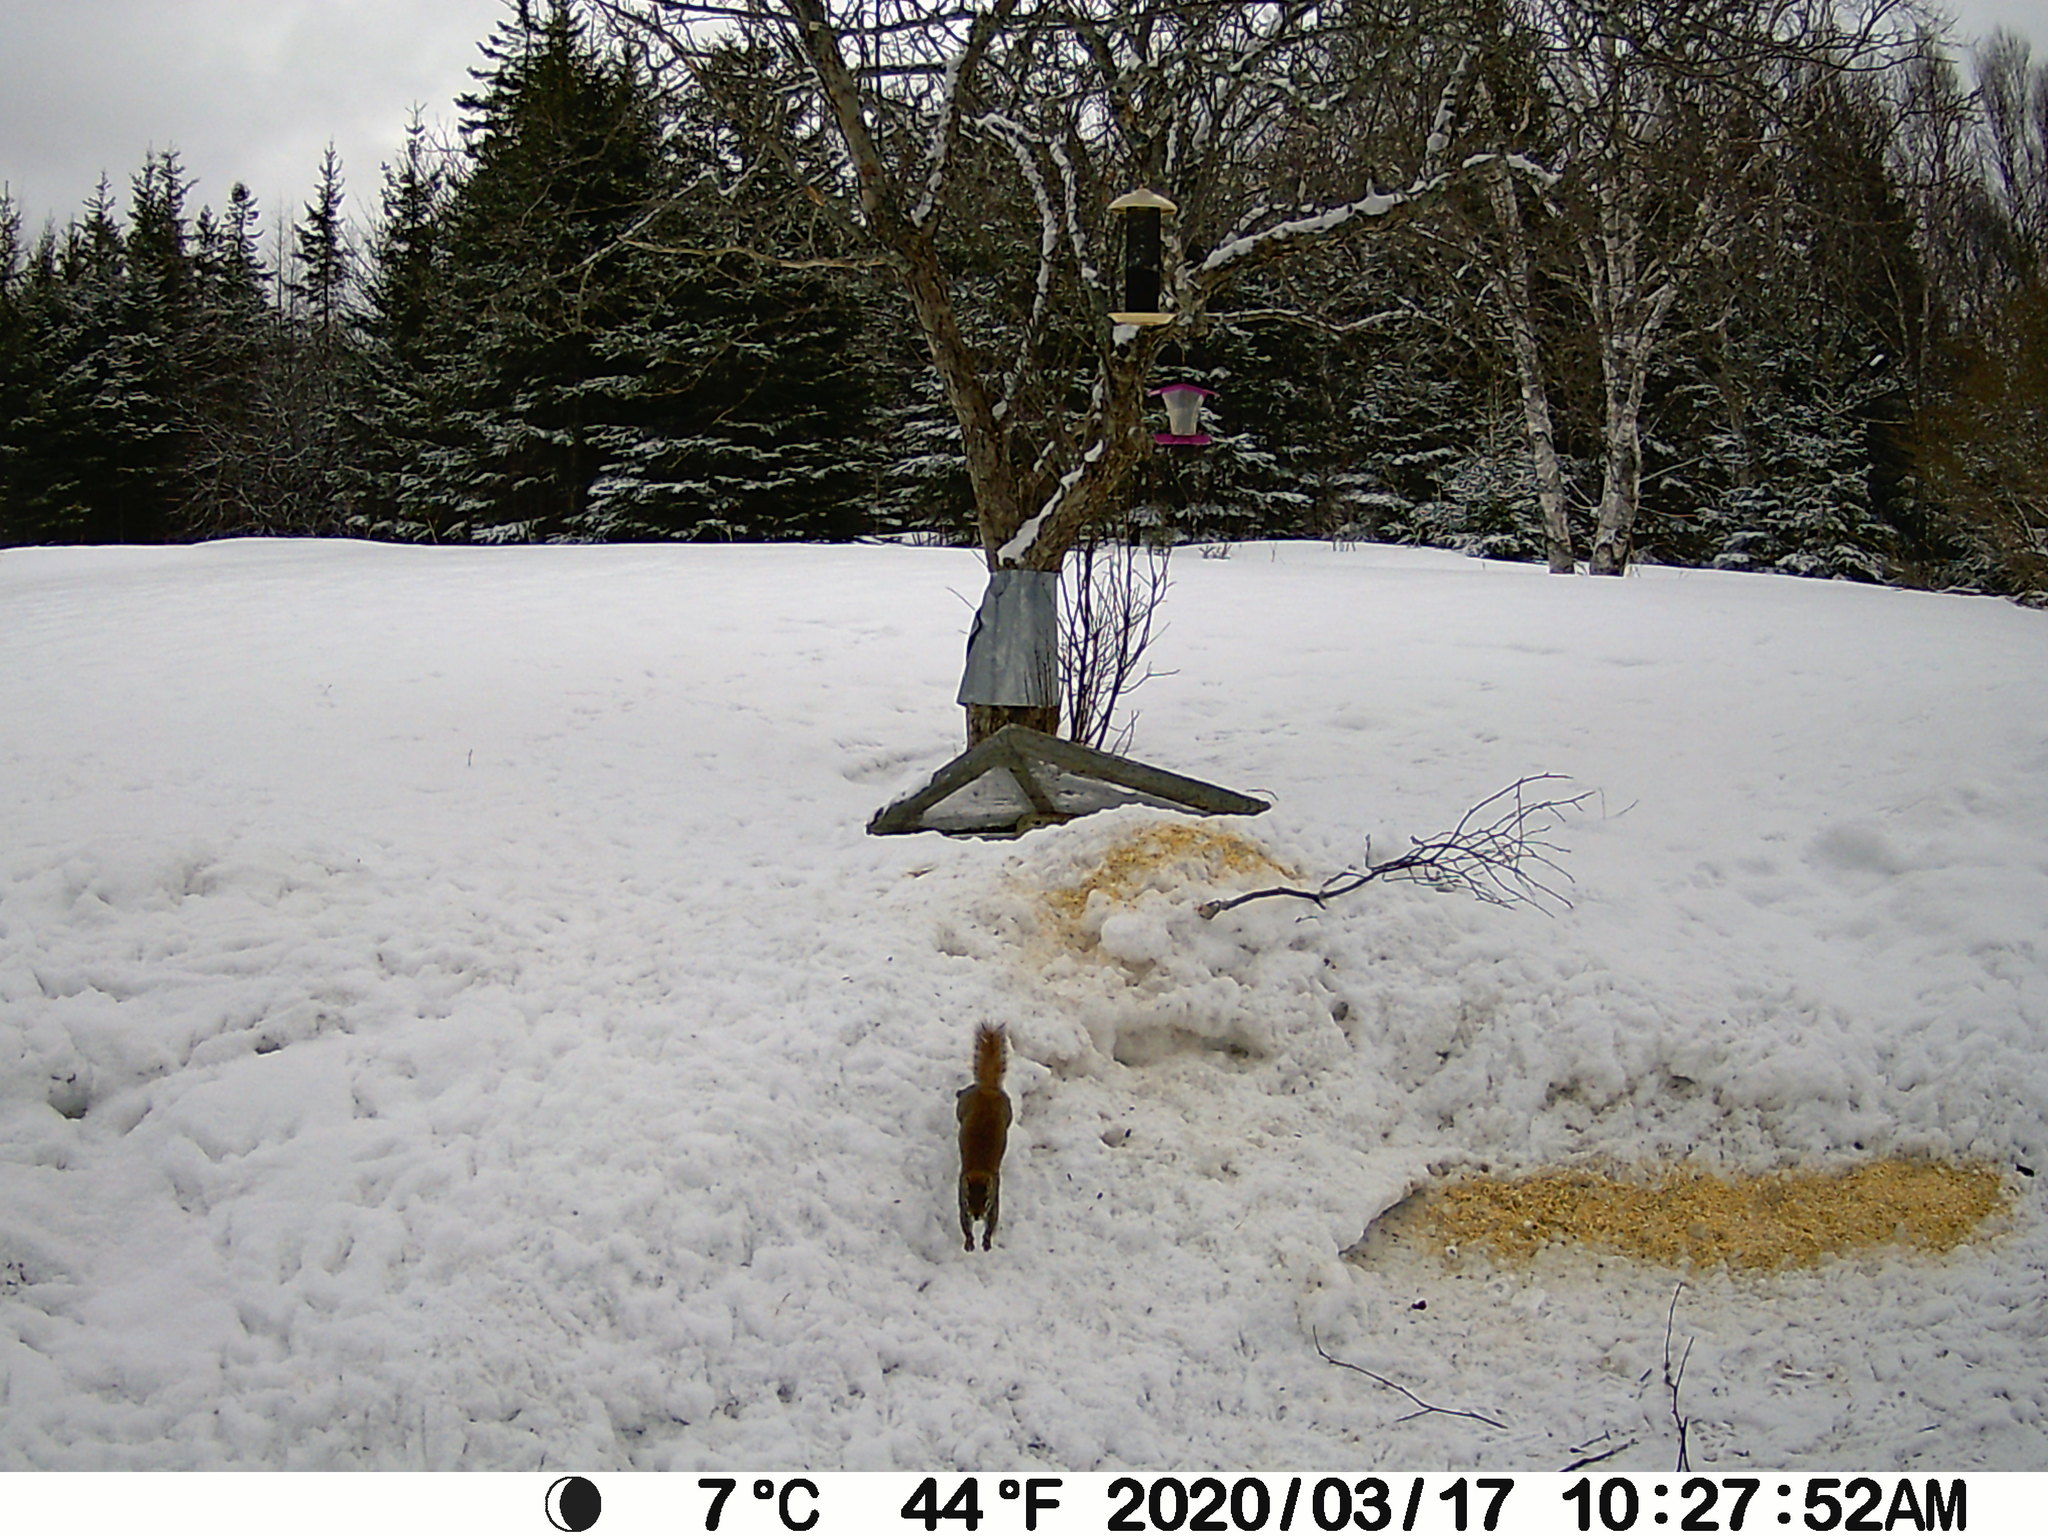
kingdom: Animalia
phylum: Chordata
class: Mammalia
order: Rodentia
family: Sciuridae
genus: Tamiasciurus
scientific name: Tamiasciurus hudsonicus
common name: Red squirrel
